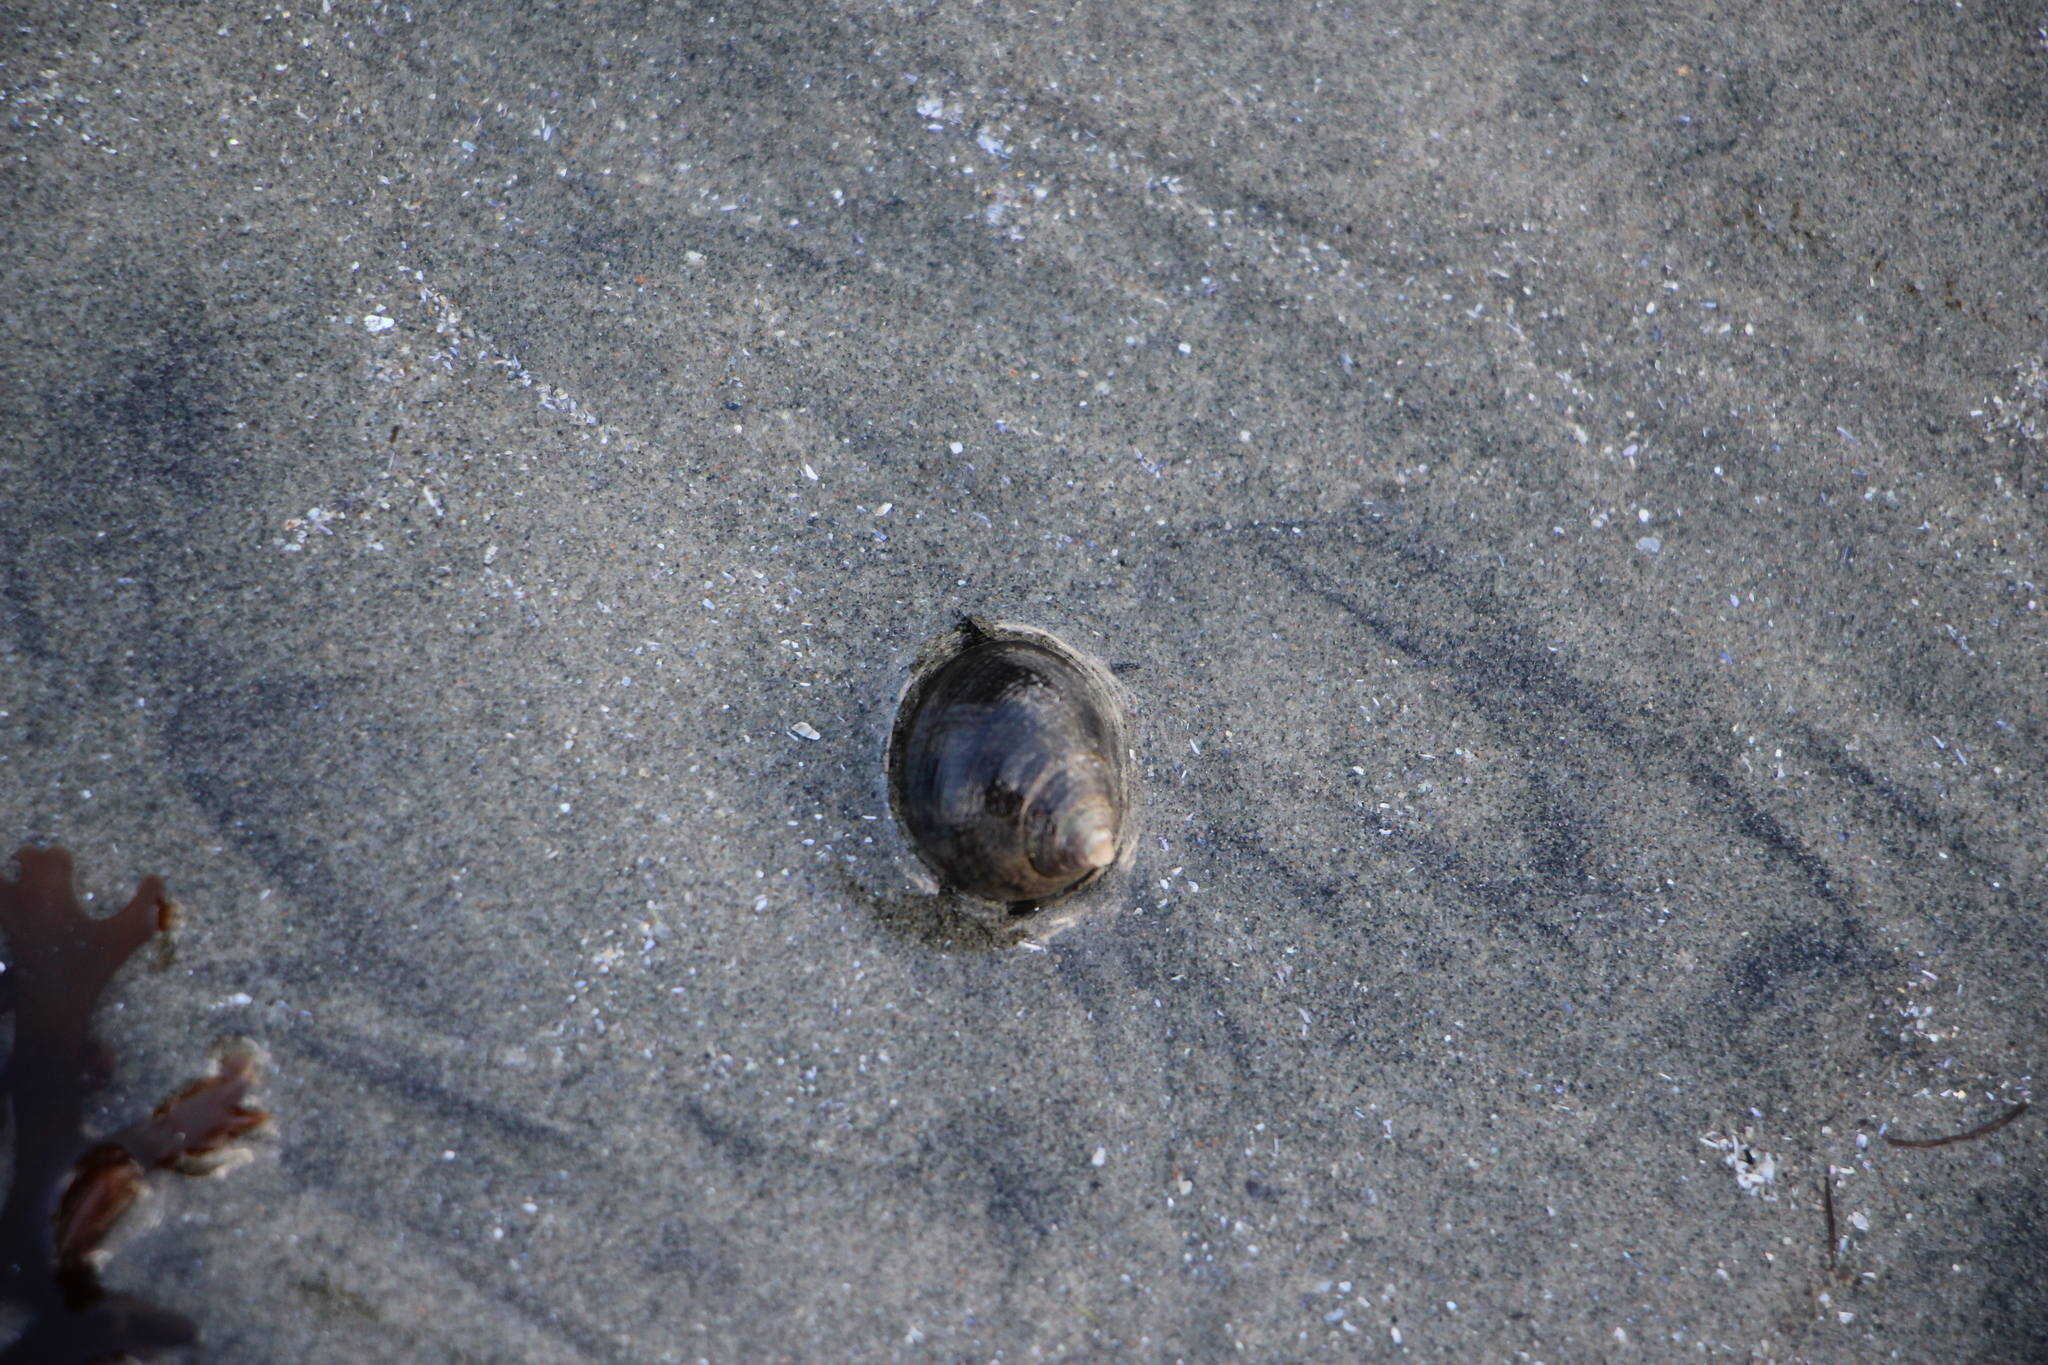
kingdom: Animalia
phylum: Mollusca
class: Gastropoda
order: Littorinimorpha
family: Littorinidae
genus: Littorina
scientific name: Littorina littorea
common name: Common periwinkle
